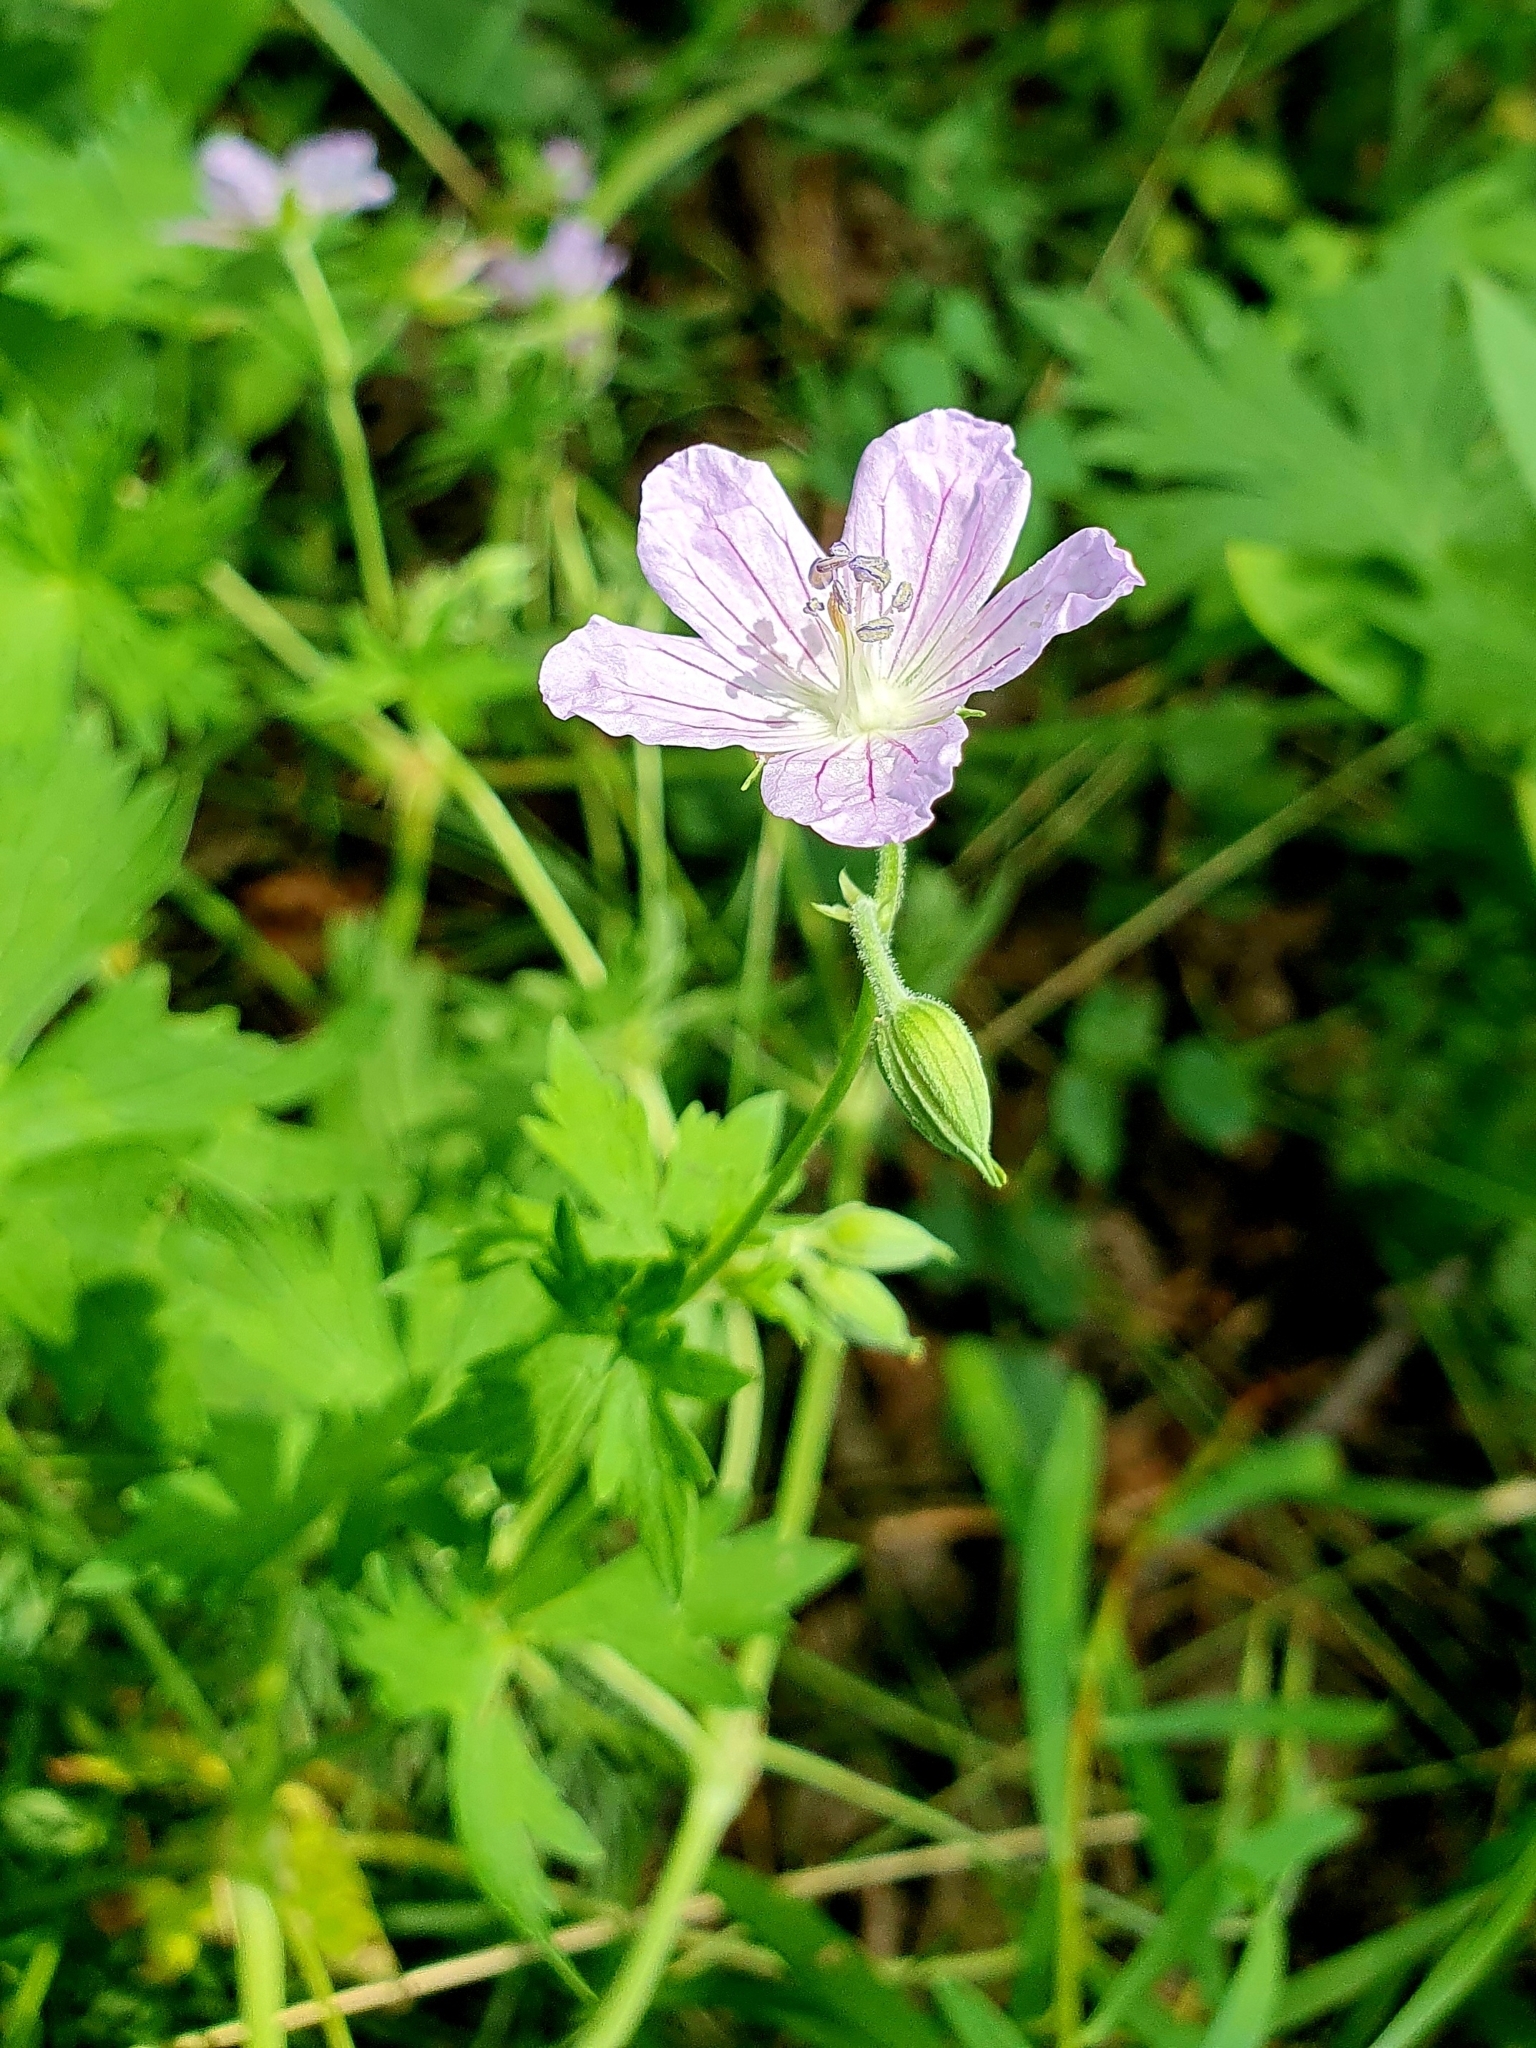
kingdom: Plantae
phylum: Tracheophyta
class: Magnoliopsida
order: Geraniales
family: Geraniaceae
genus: Geranium
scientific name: Geranium collinum
